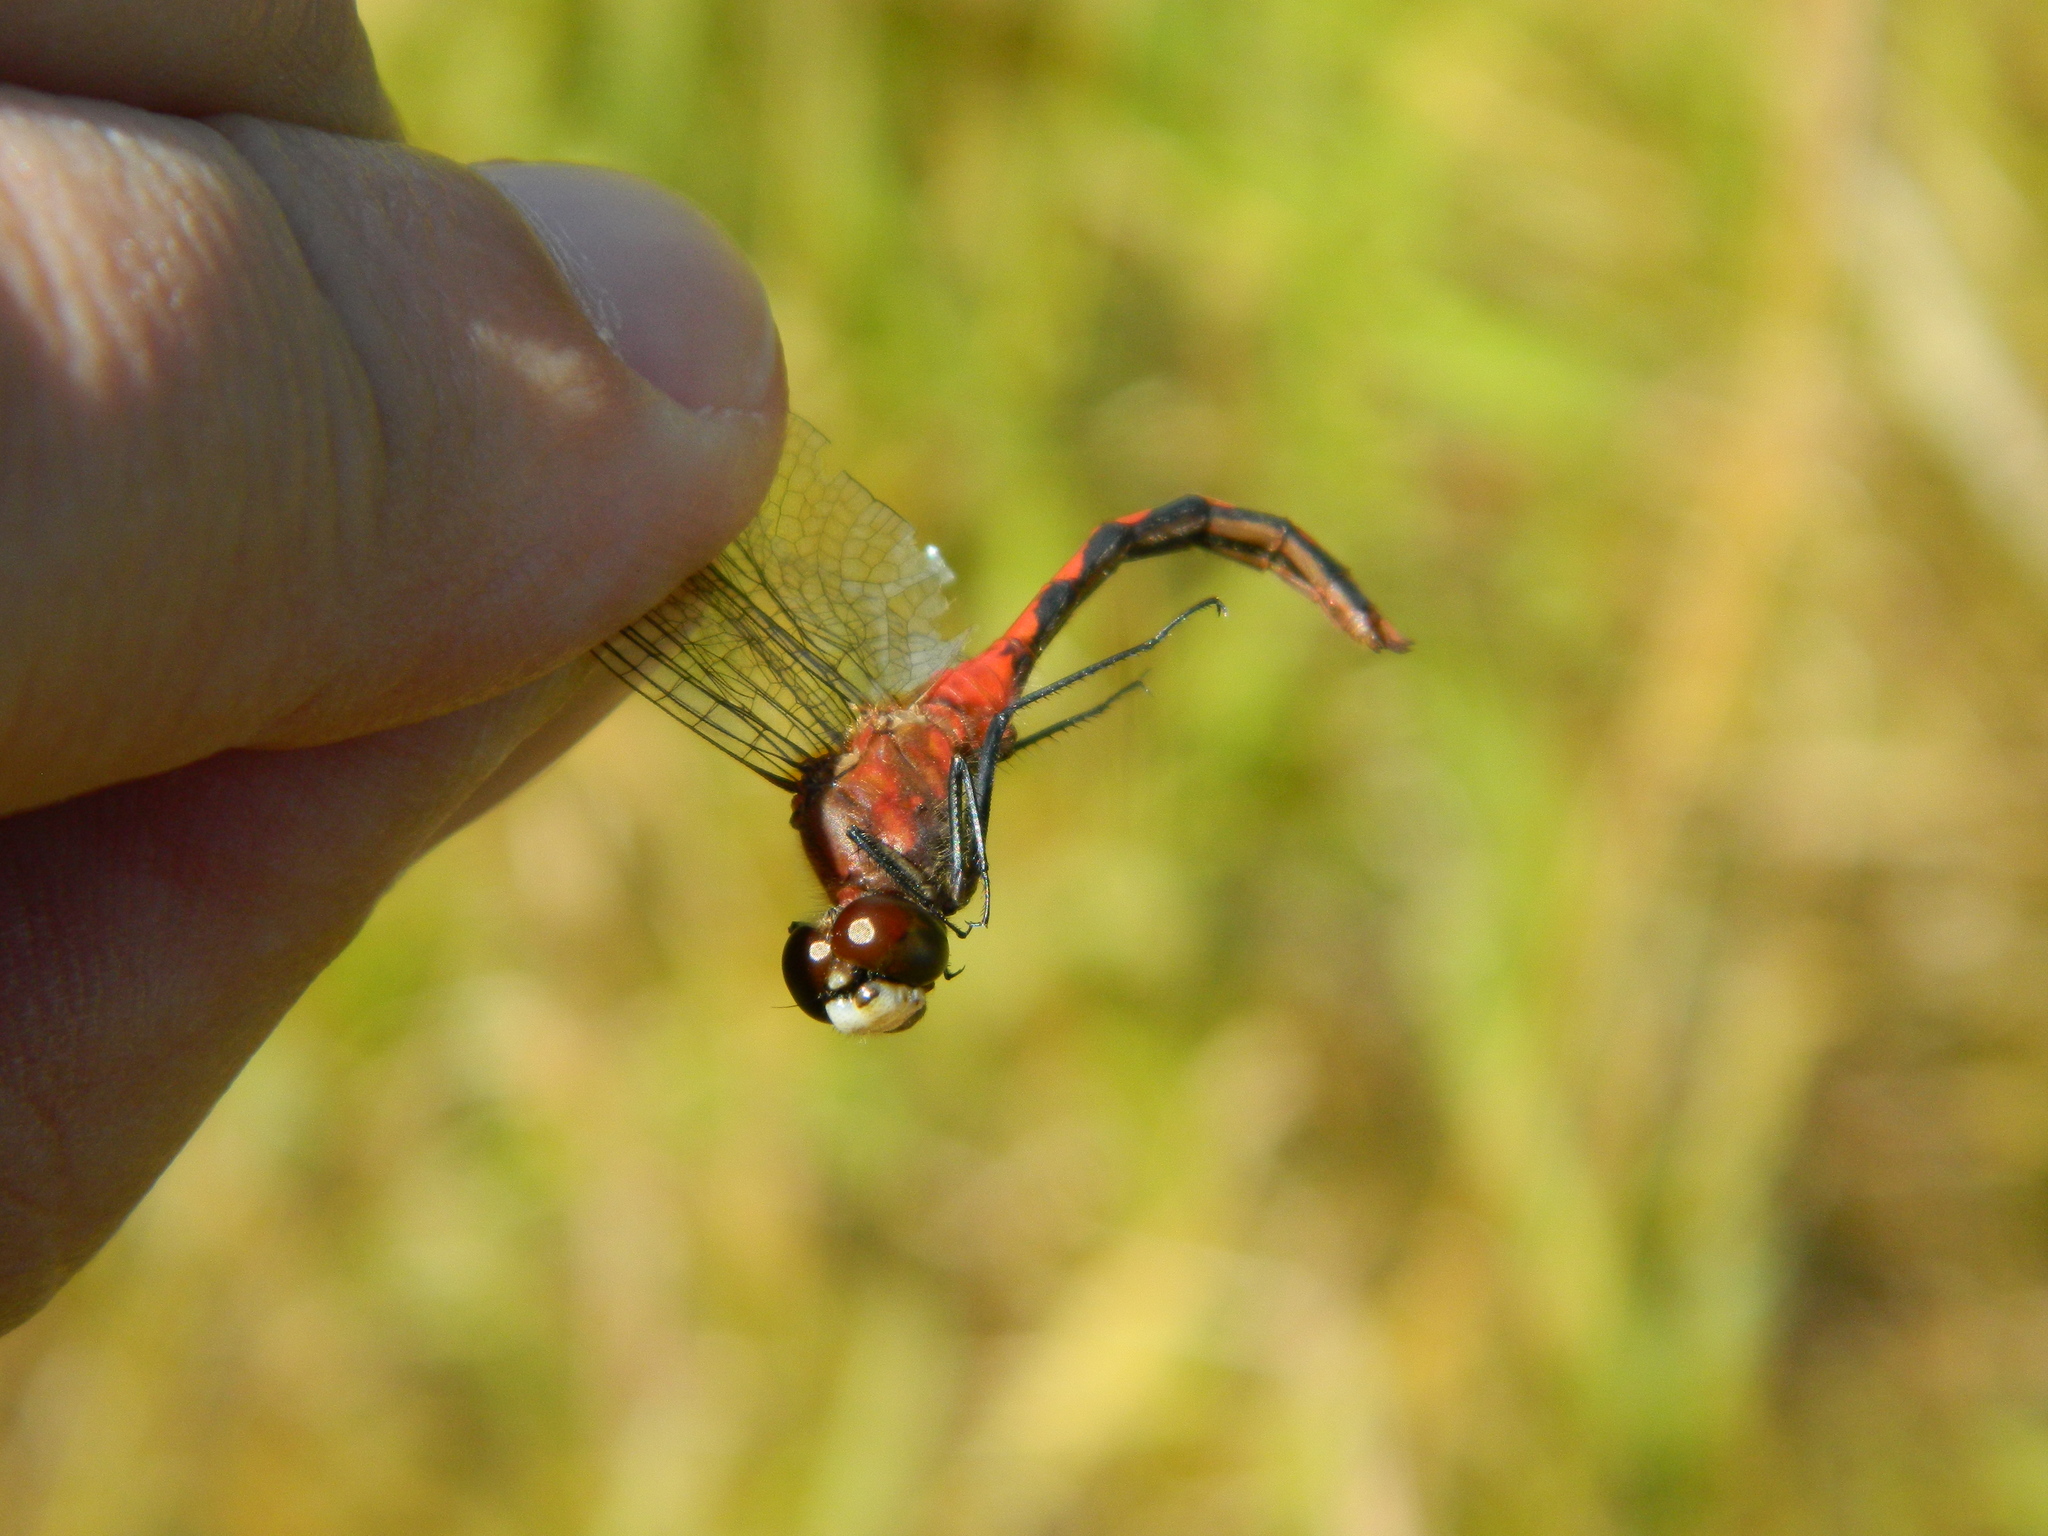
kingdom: Animalia
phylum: Arthropoda
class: Insecta
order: Odonata
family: Libellulidae
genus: Sympetrum
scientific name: Sympetrum obtrusum
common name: White-faced meadowhawk
